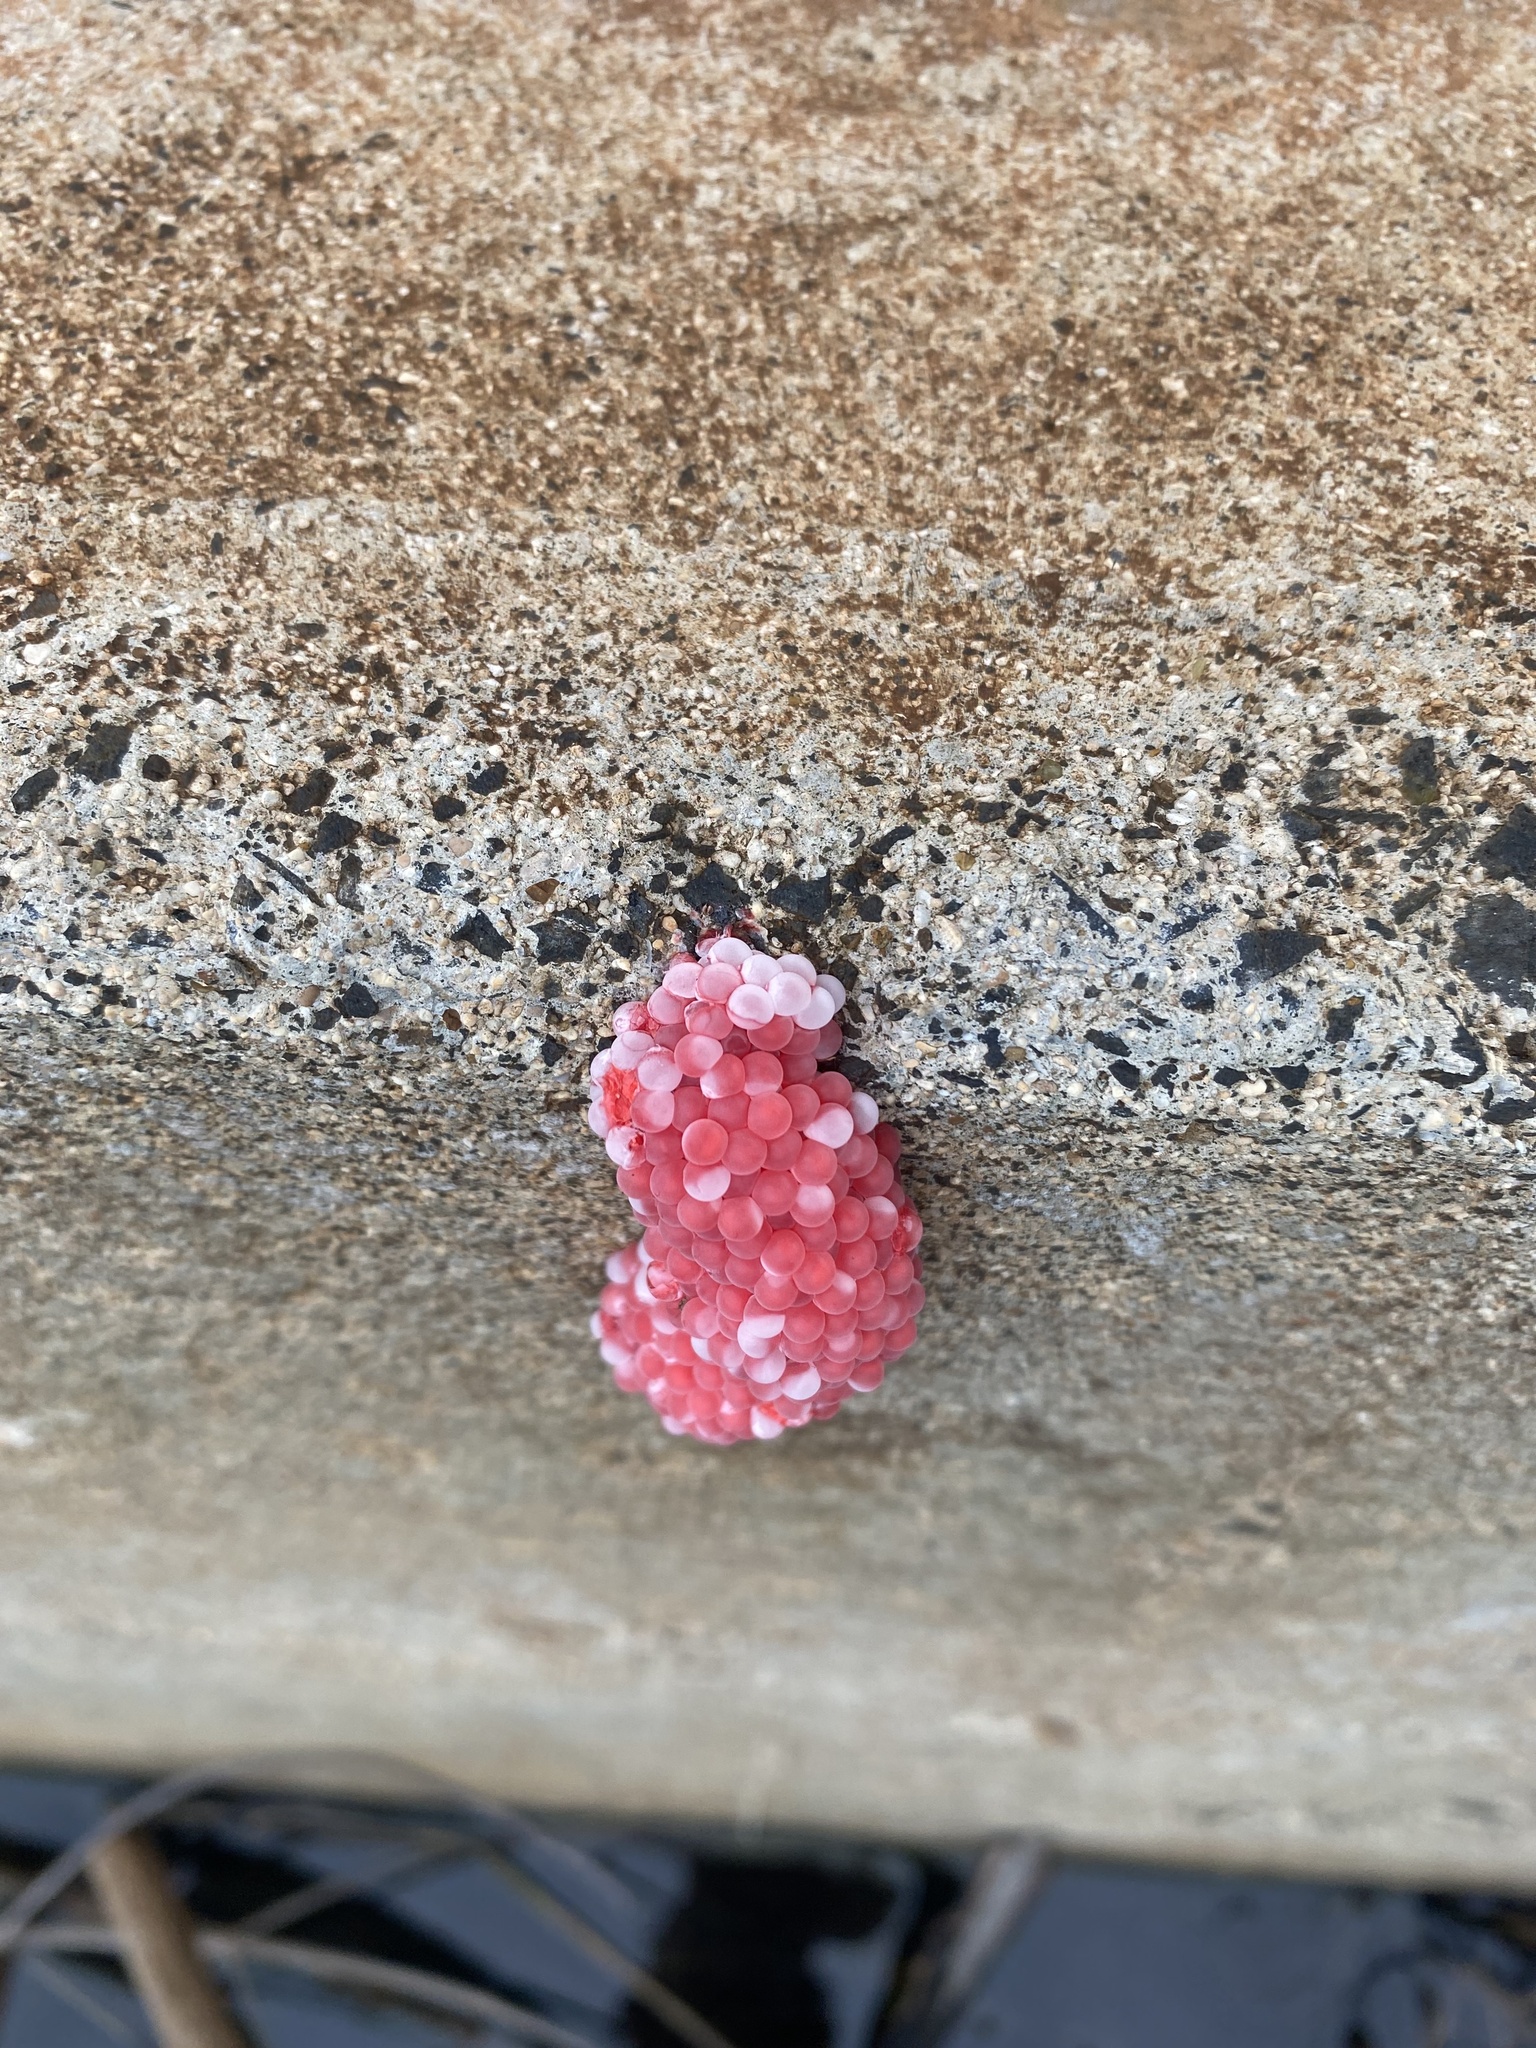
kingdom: Animalia
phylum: Mollusca
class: Gastropoda
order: Architaenioglossa
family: Ampullariidae
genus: Pomacea
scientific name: Pomacea canaliculata
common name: Channeled applesnail
